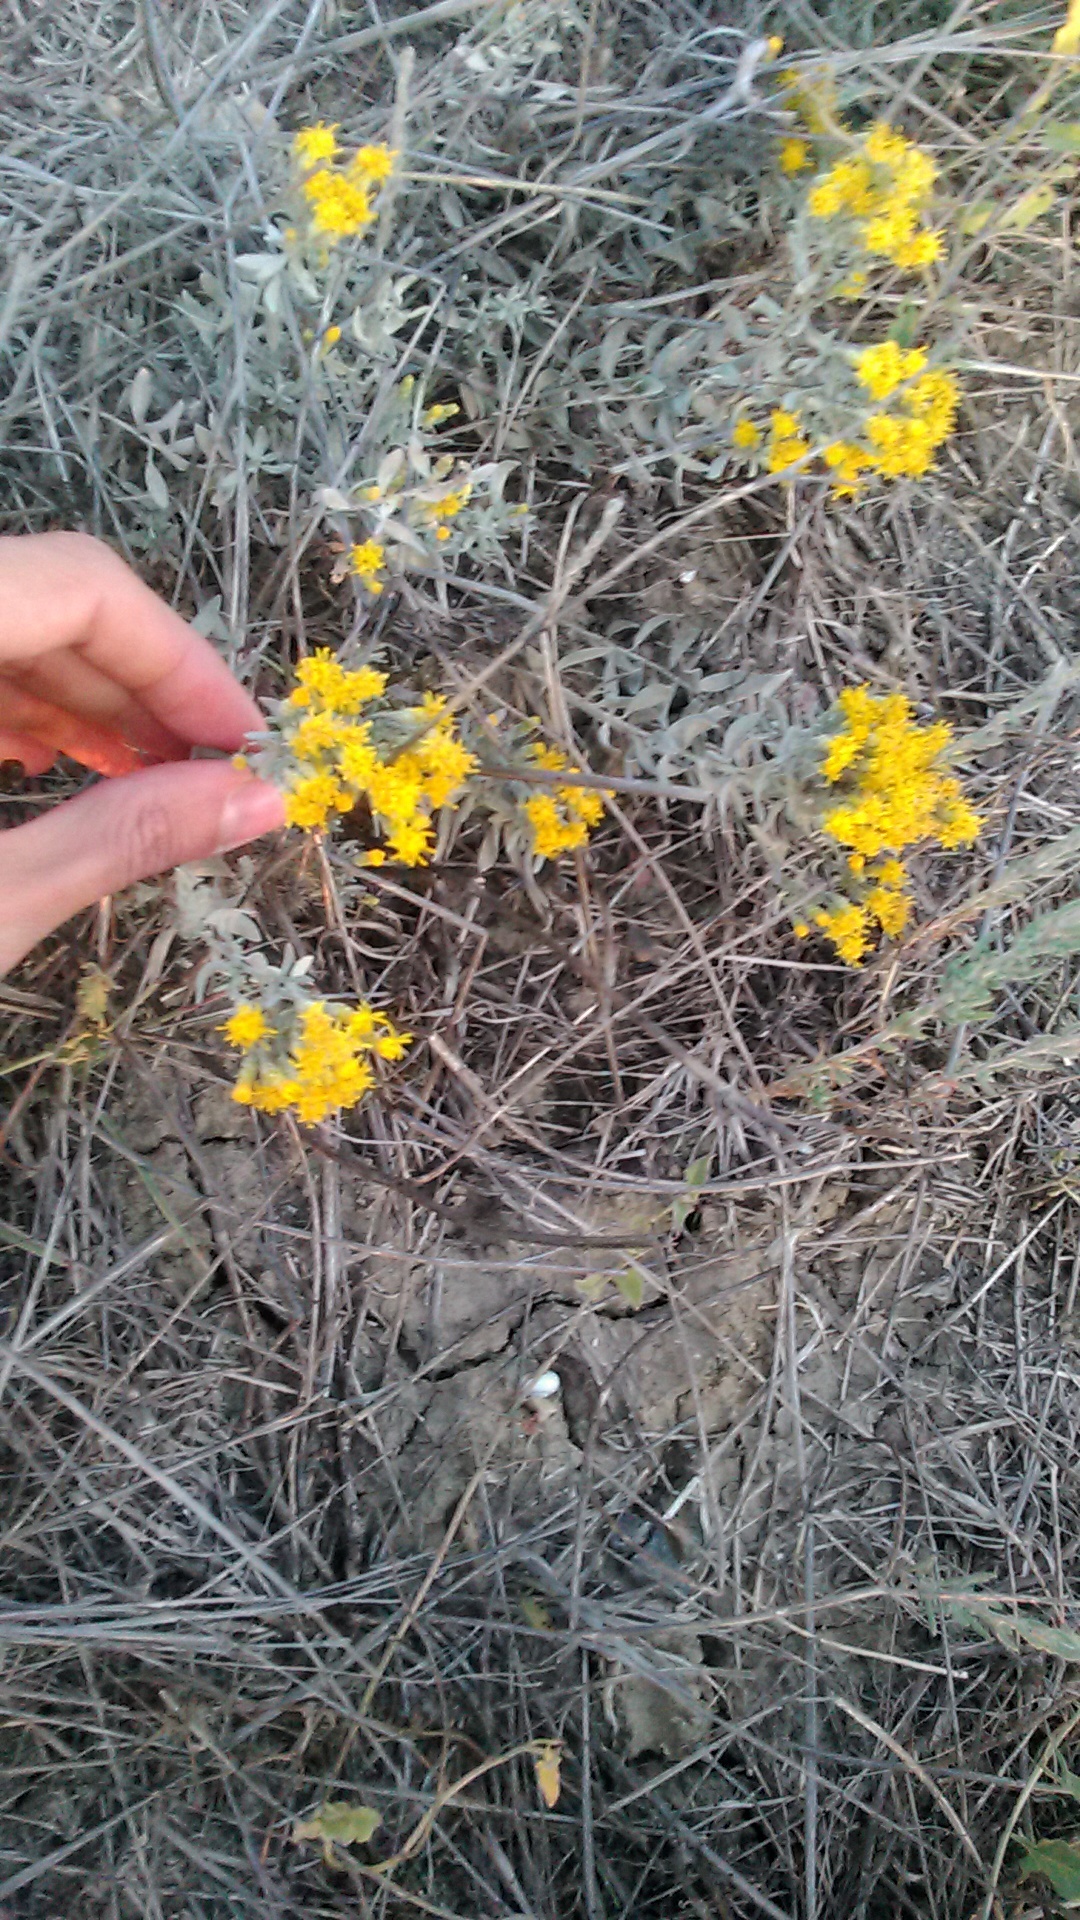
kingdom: Plantae
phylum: Tracheophyta
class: Magnoliopsida
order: Asterales
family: Asteraceae
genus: Galatella
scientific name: Galatella villosa
